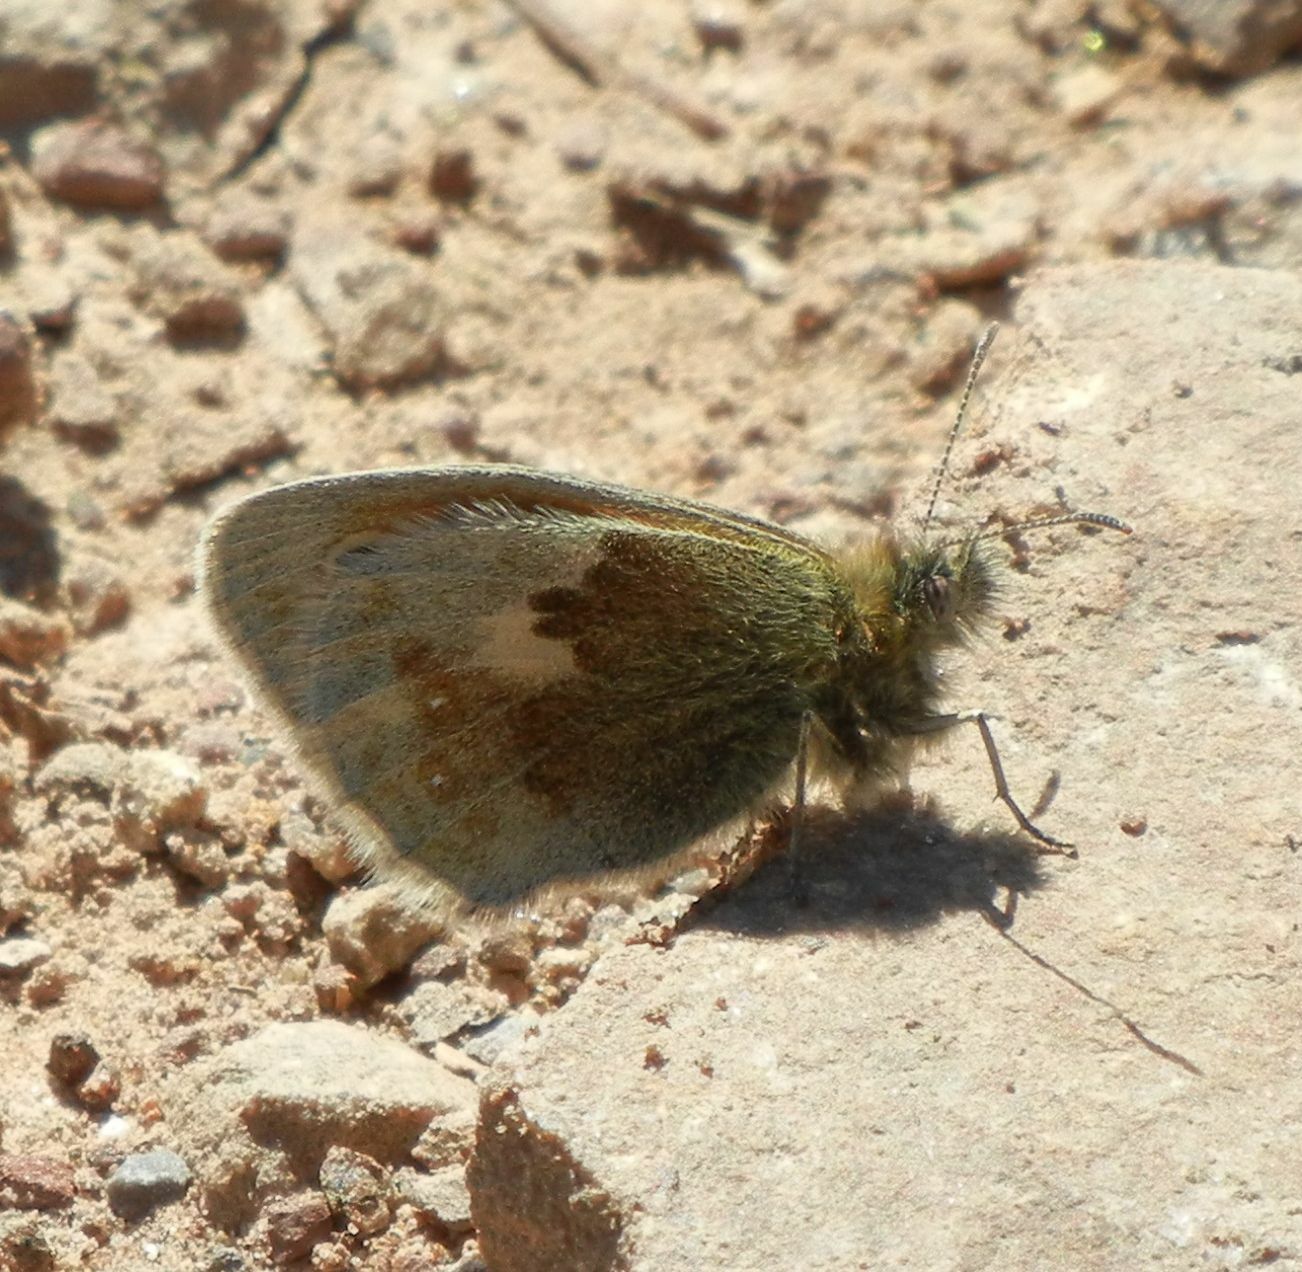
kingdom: Animalia
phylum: Arthropoda
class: Insecta
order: Lepidoptera
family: Nymphalidae
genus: Coenonympha
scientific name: Coenonympha pamphilus
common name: Small heath
